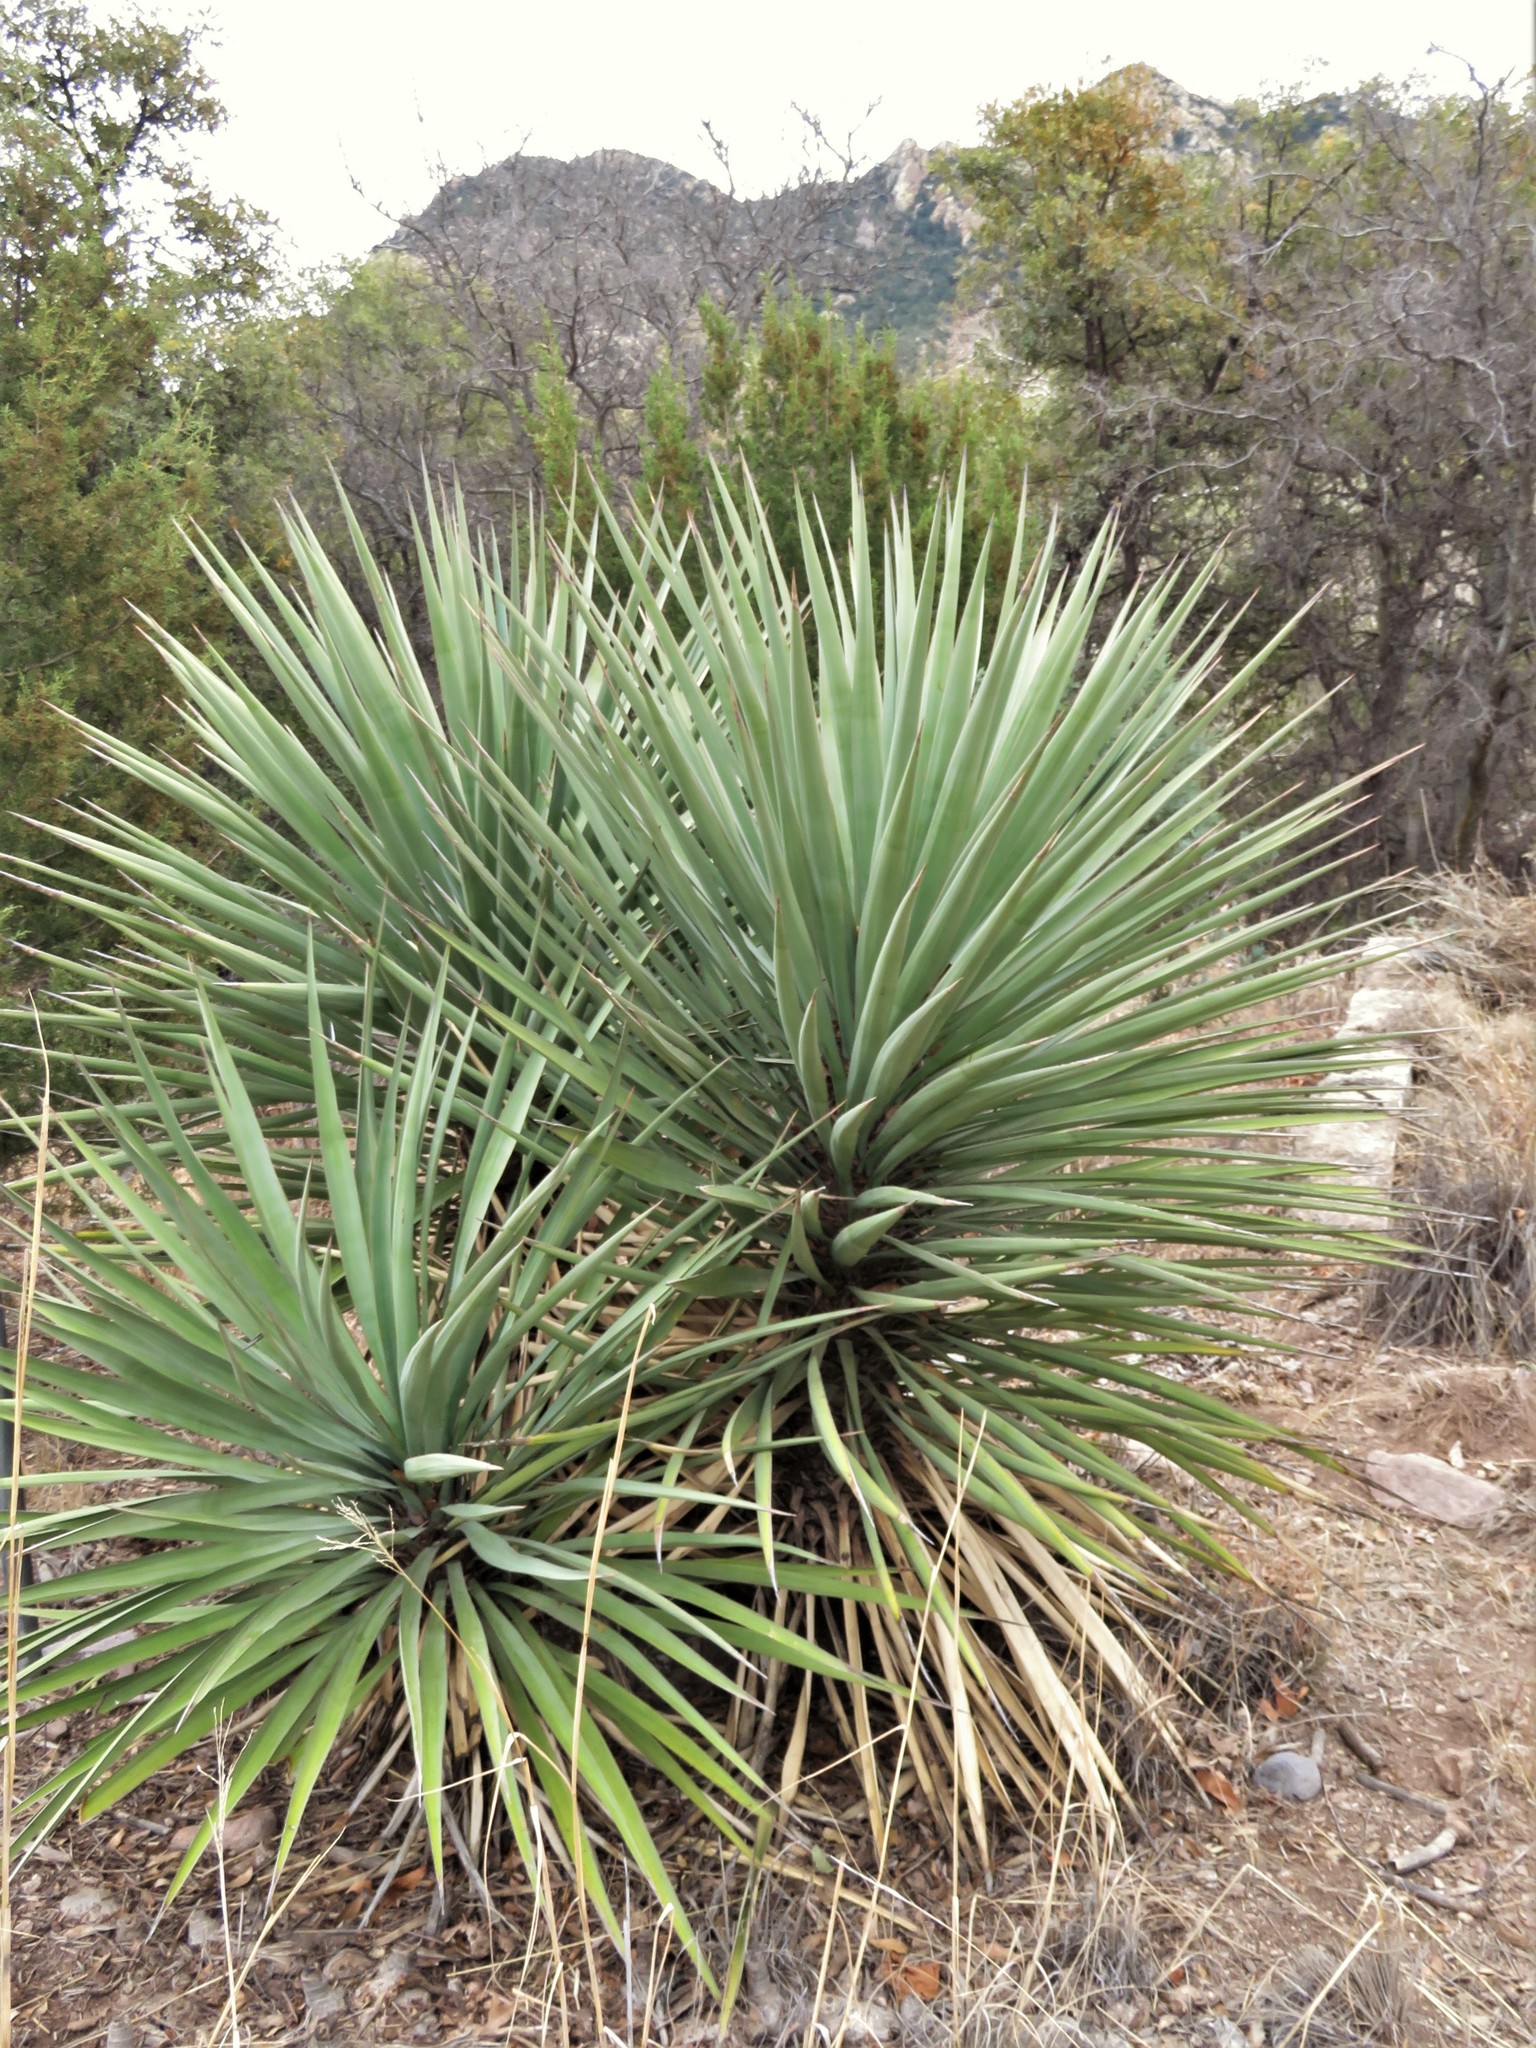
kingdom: Plantae
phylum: Tracheophyta
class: Liliopsida
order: Asparagales
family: Asparagaceae
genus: Yucca
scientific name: Yucca madrensis
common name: Hoary yucca
